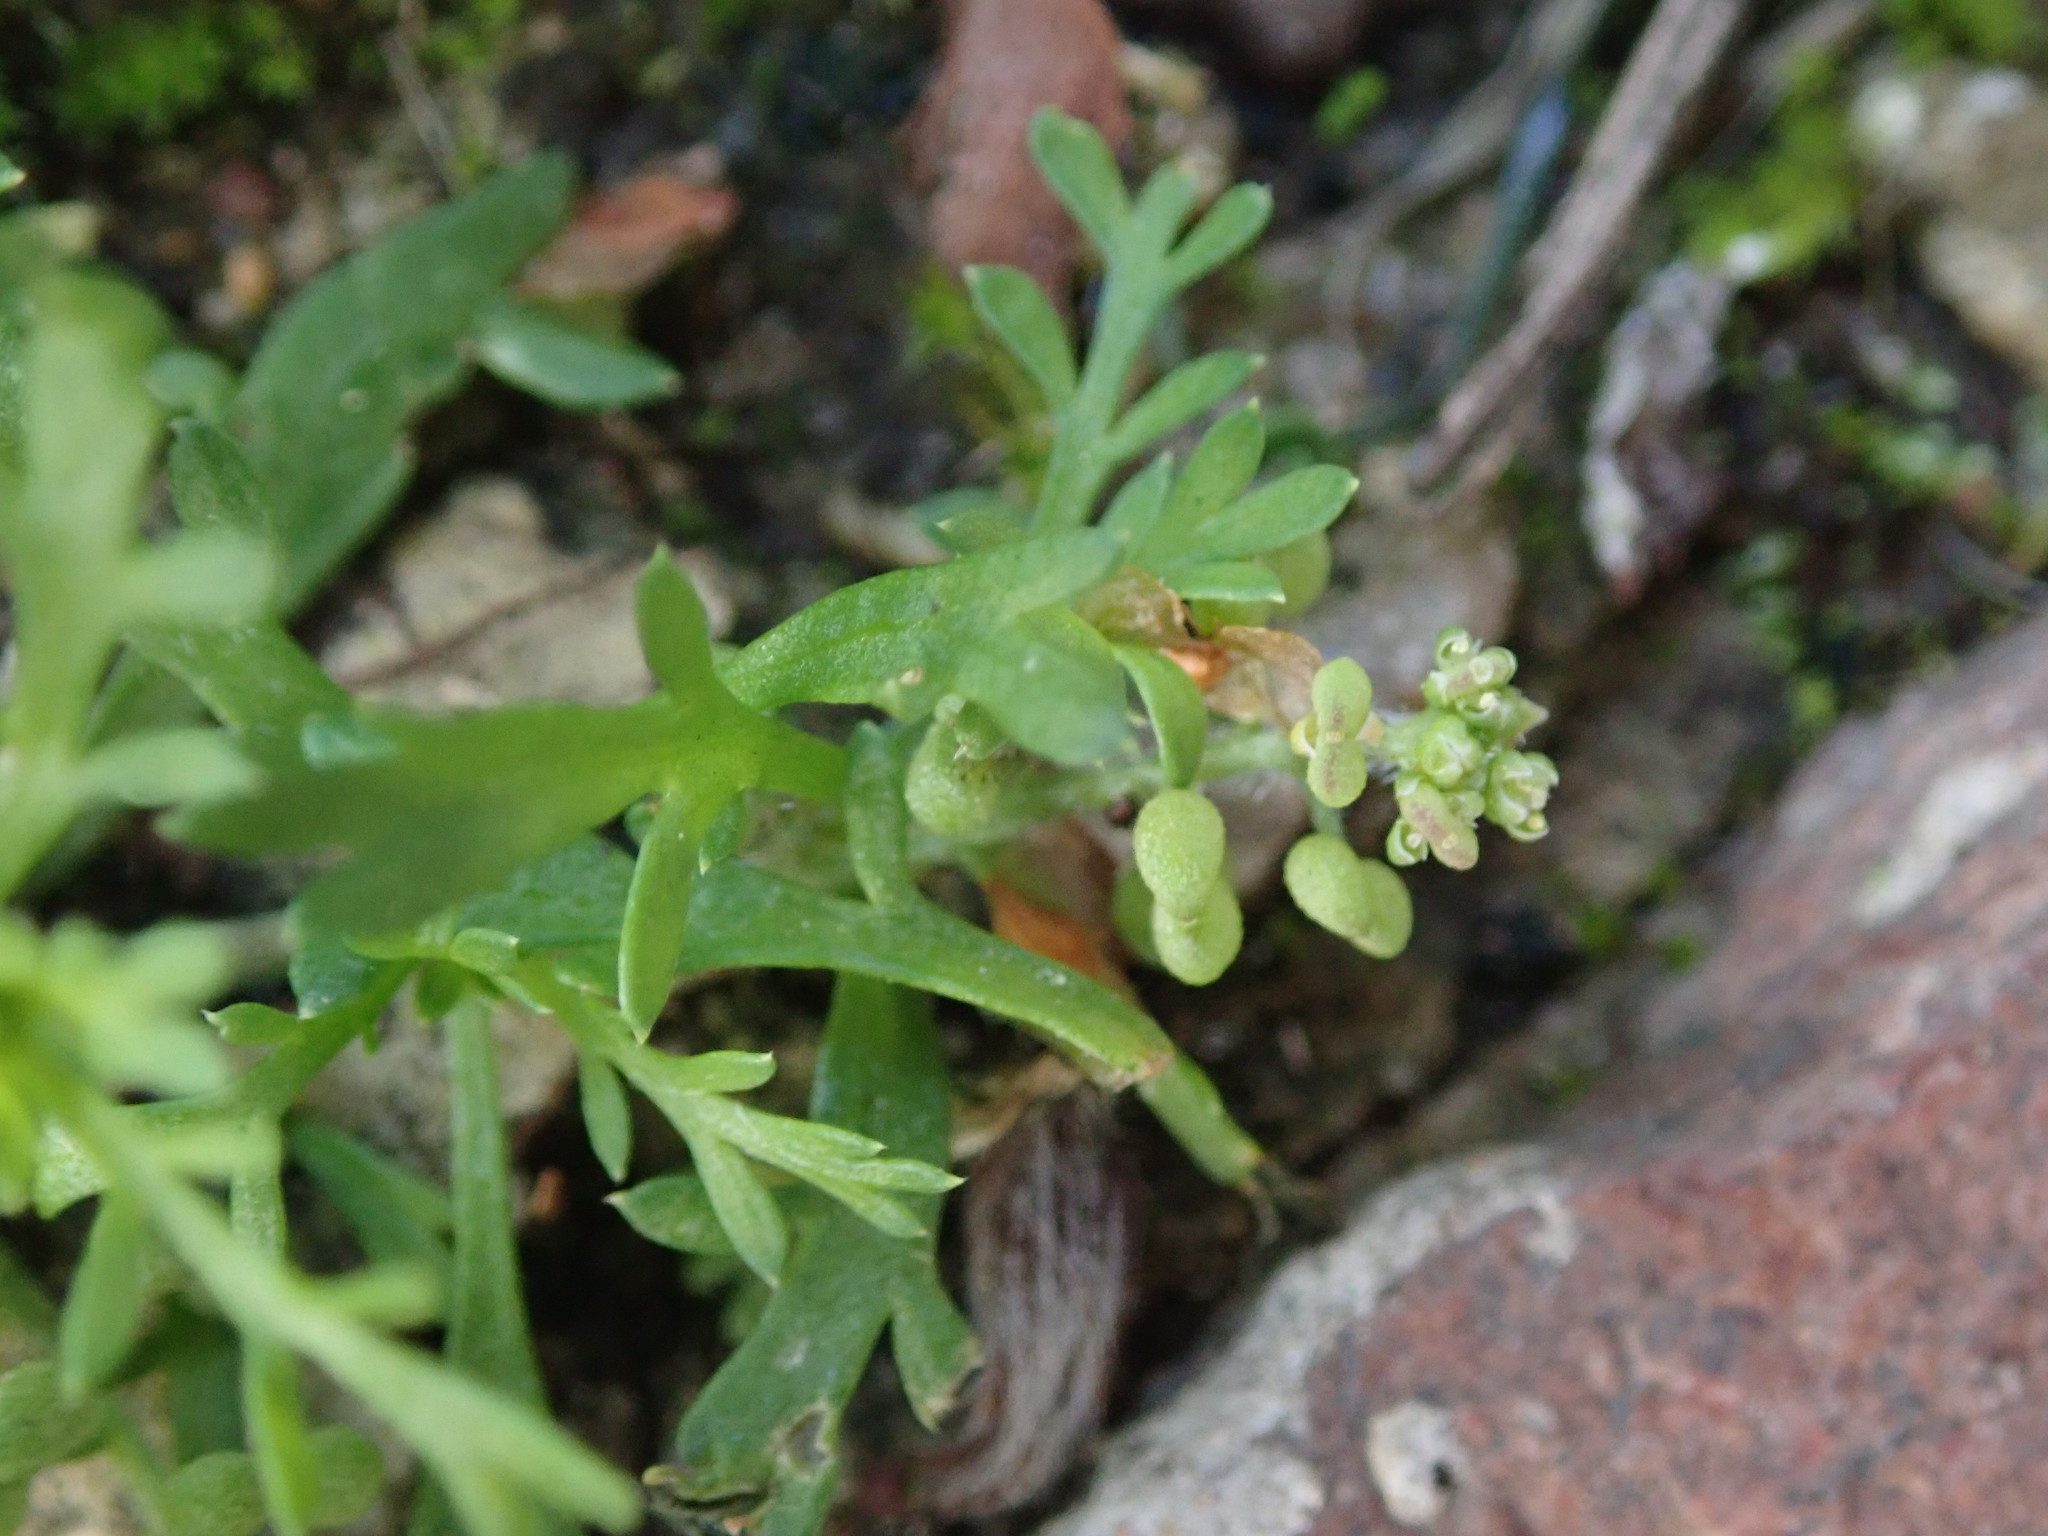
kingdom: Plantae
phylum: Tracheophyta
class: Magnoliopsida
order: Brassicales
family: Brassicaceae
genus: Lepidium
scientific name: Lepidium didymum
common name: Lesser swinecress
